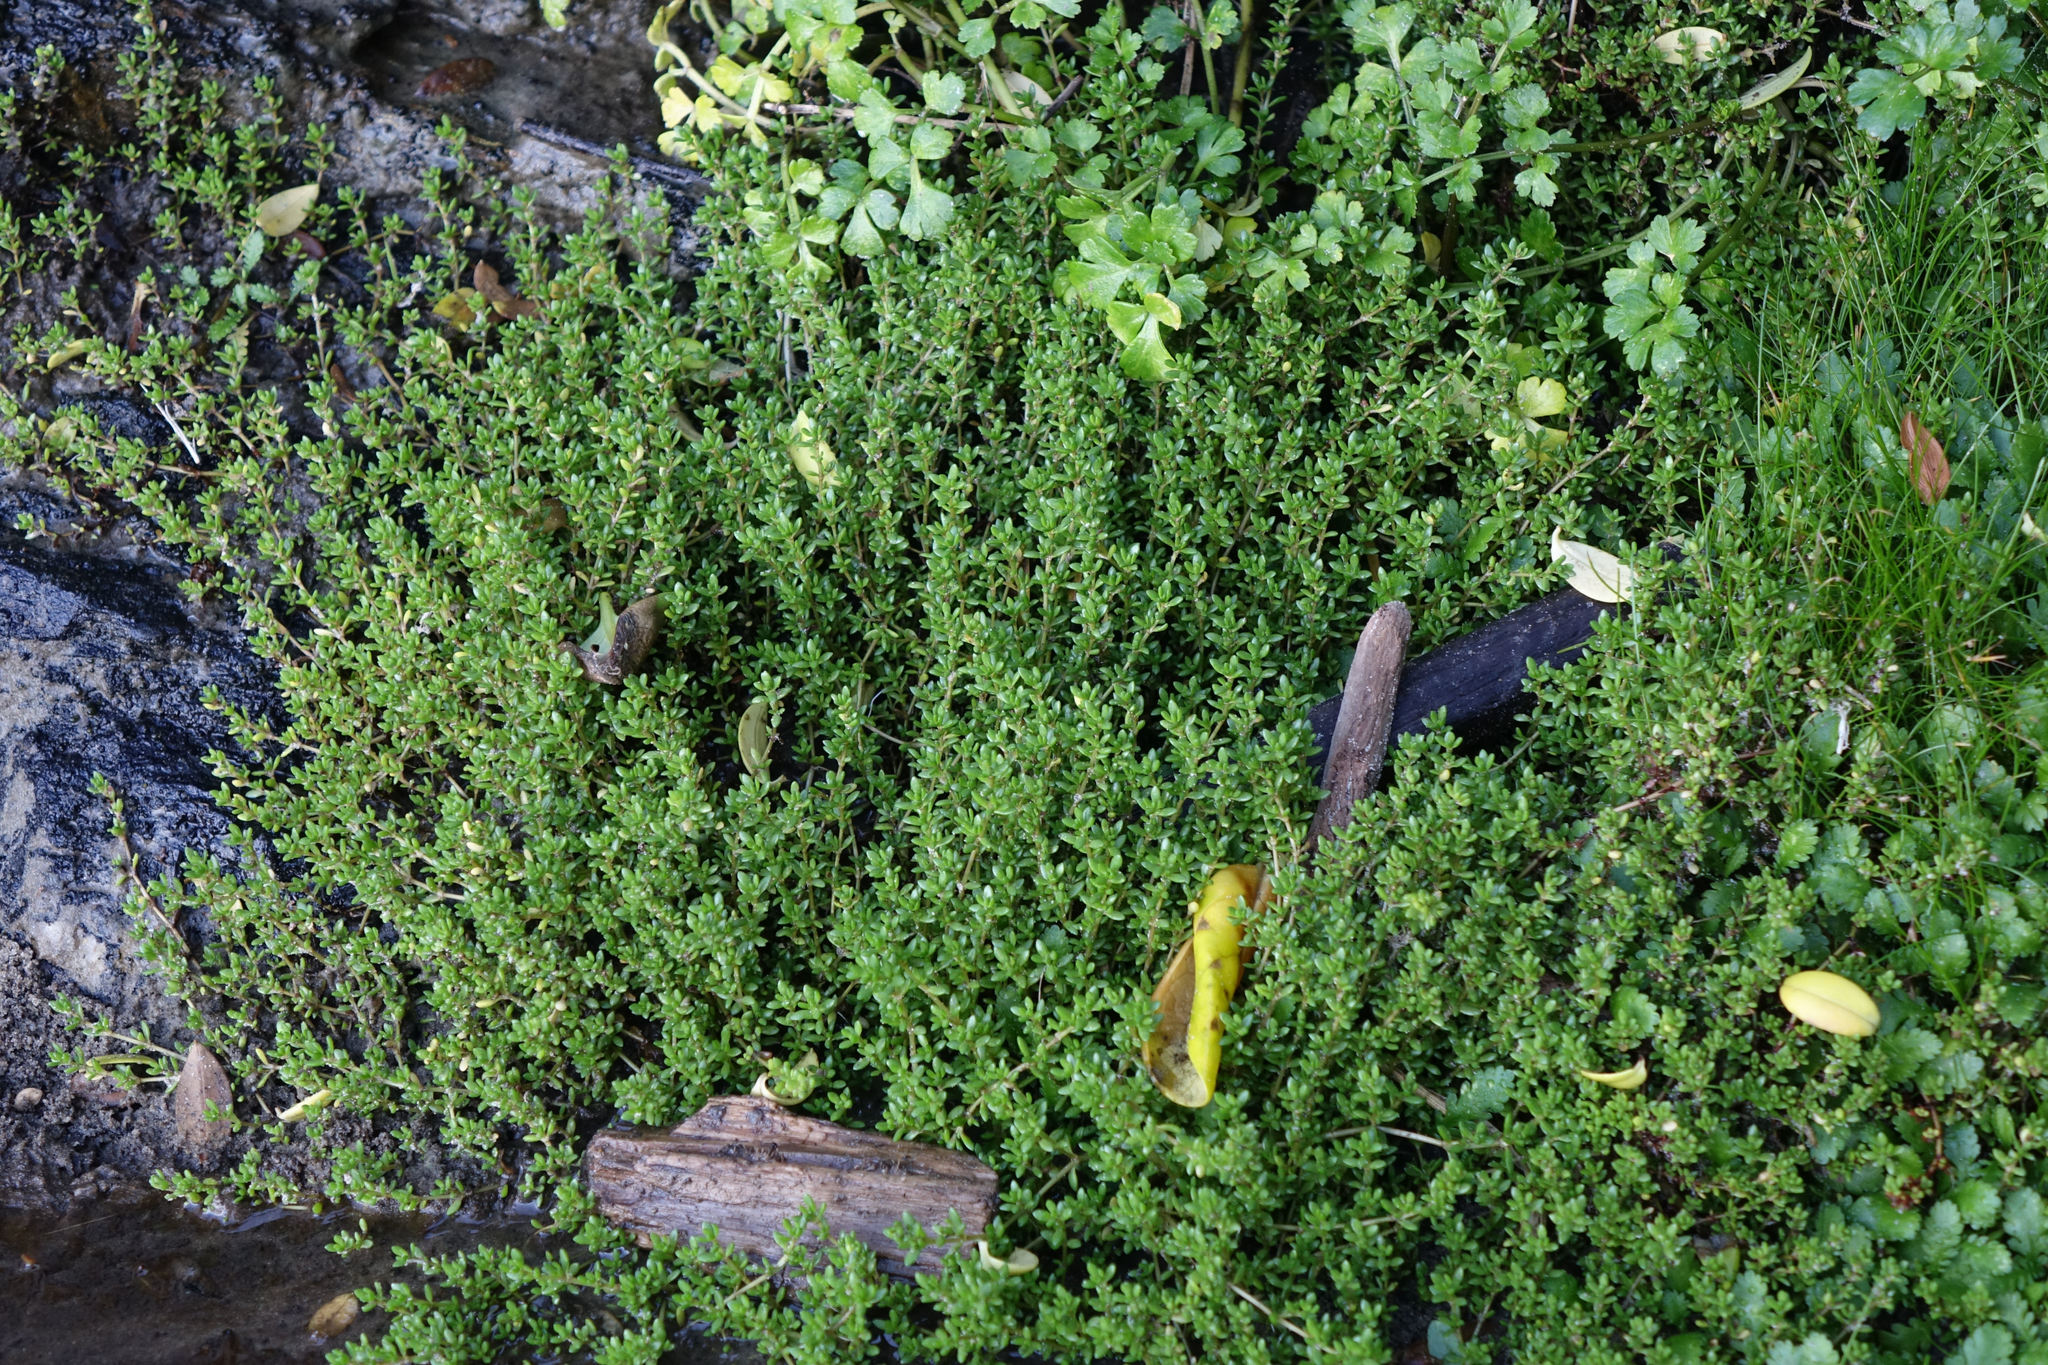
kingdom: Plantae
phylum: Tracheophyta
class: Magnoliopsida
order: Saxifragales
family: Crassulaceae
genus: Crassula
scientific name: Crassula moschata
